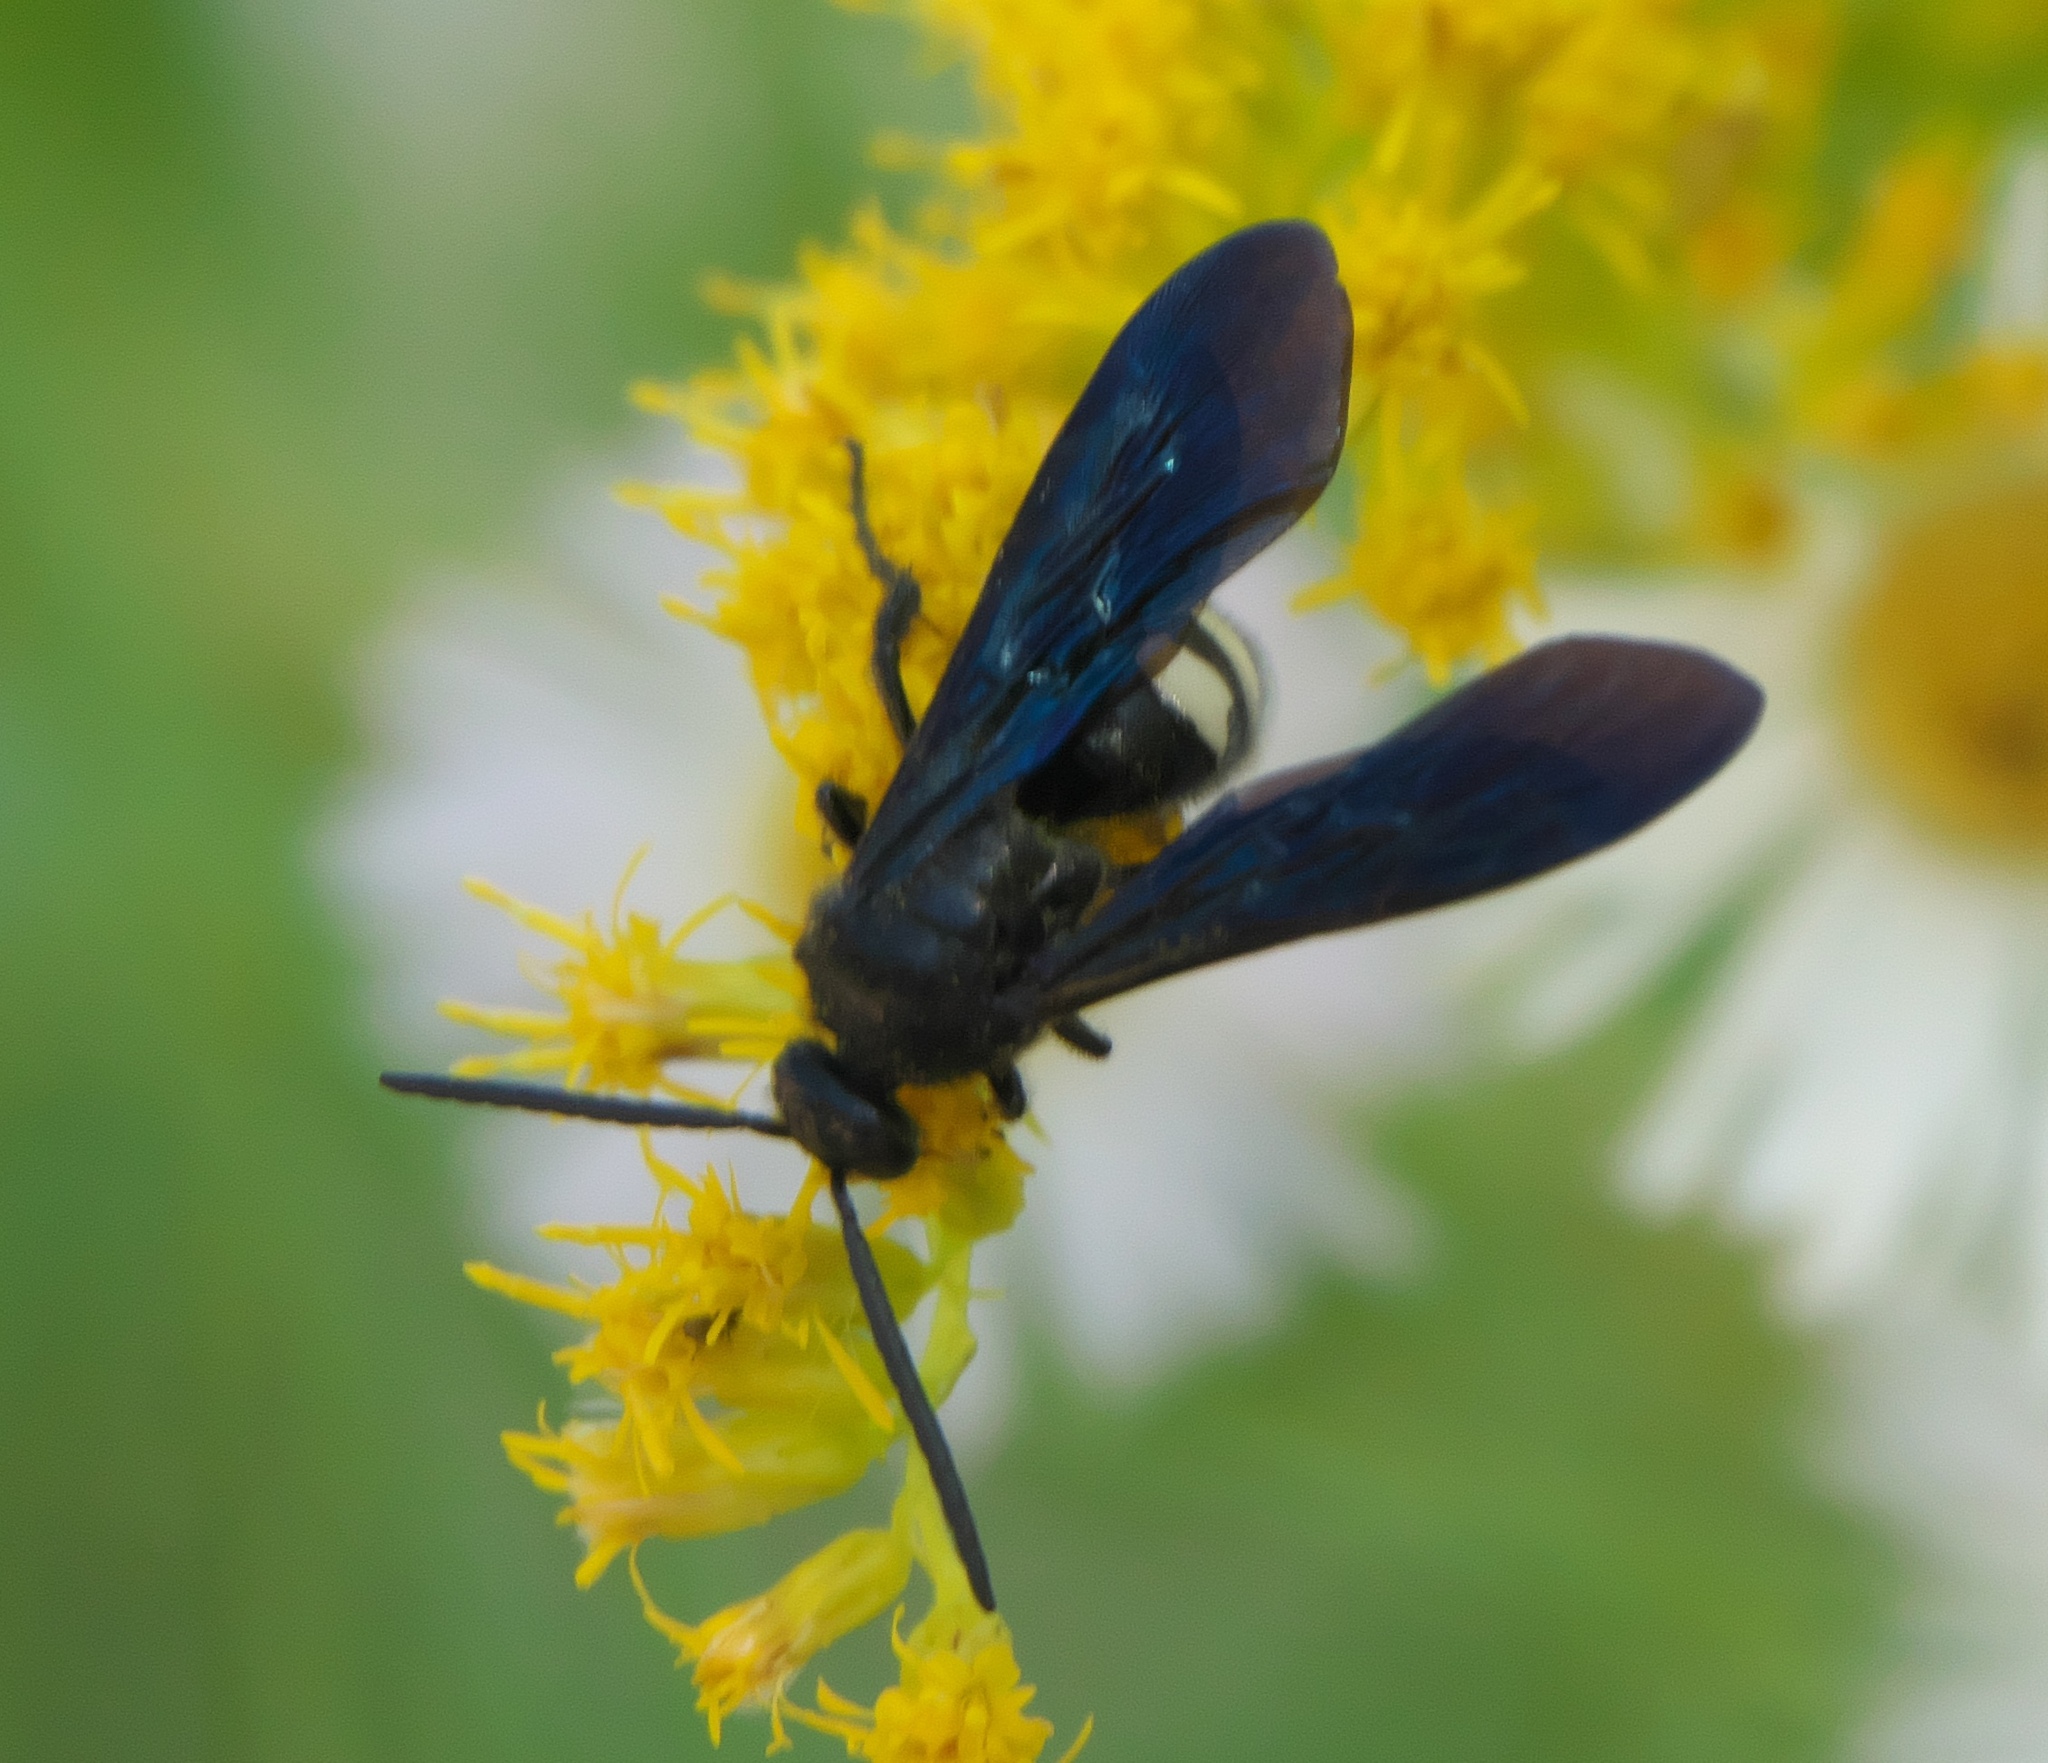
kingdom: Animalia
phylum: Arthropoda
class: Insecta
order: Hymenoptera
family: Scoliidae
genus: Scolia
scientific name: Scolia bicincta
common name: Double-banded scoliid wasp
